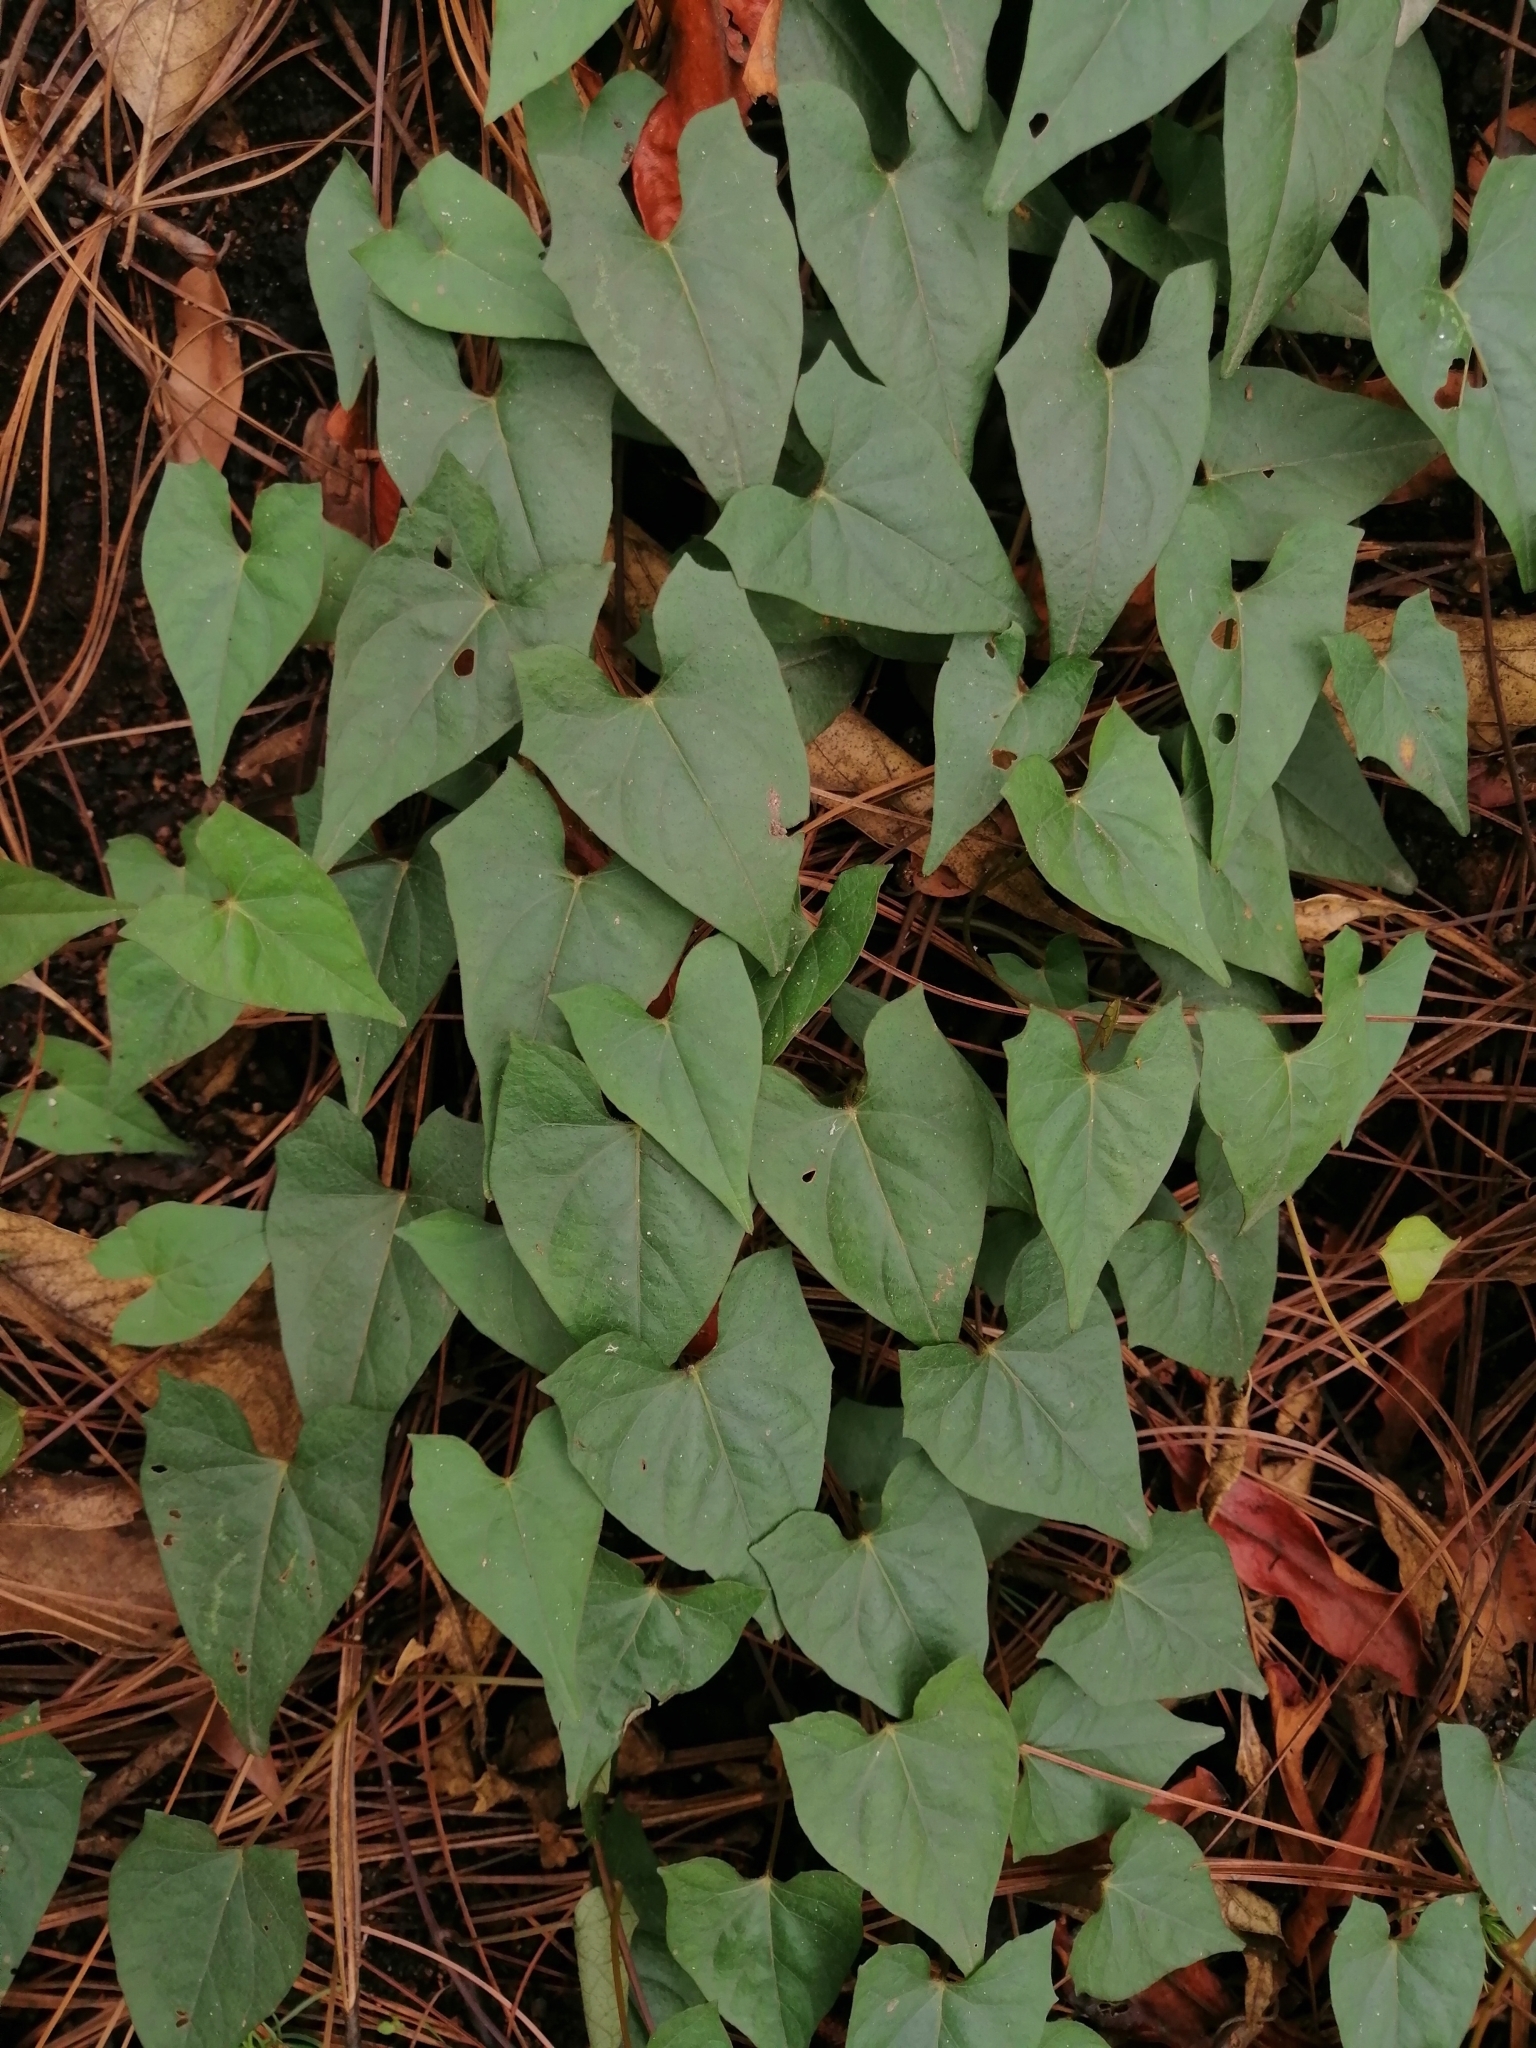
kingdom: Plantae
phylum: Tracheophyta
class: Magnoliopsida
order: Solanales
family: Convolvulaceae
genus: Ipomoea
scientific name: Ipomoea elongata
